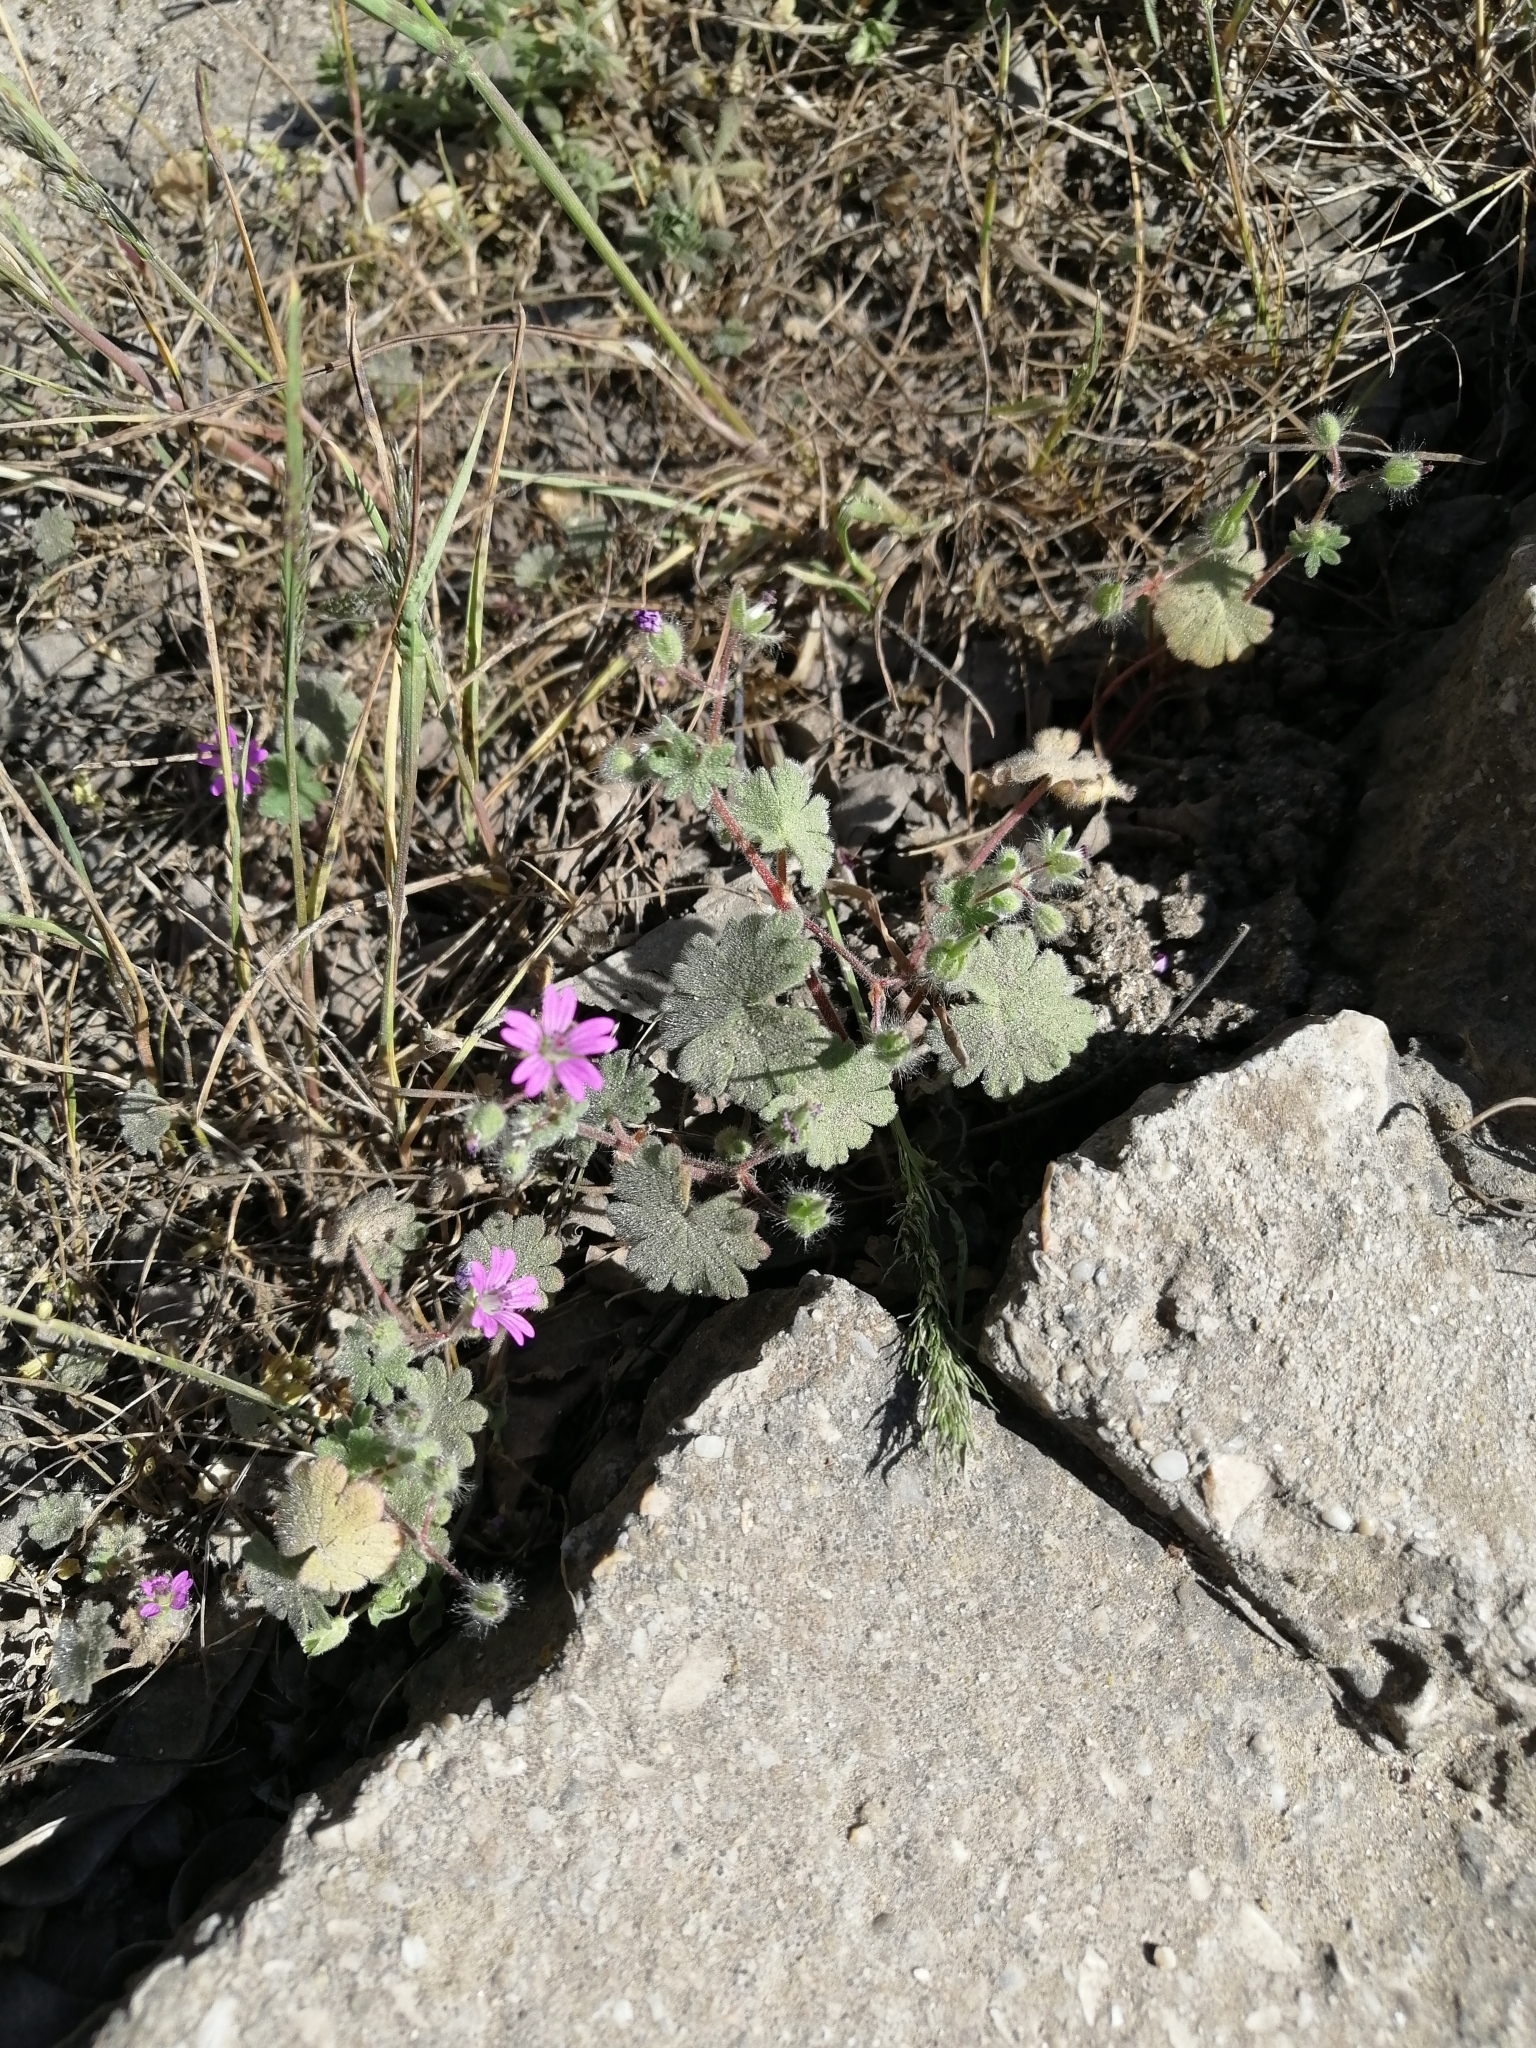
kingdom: Plantae
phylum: Tracheophyta
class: Magnoliopsida
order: Geraniales
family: Geraniaceae
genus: Geranium
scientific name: Geranium molle
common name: Dove's-foot crane's-bill
